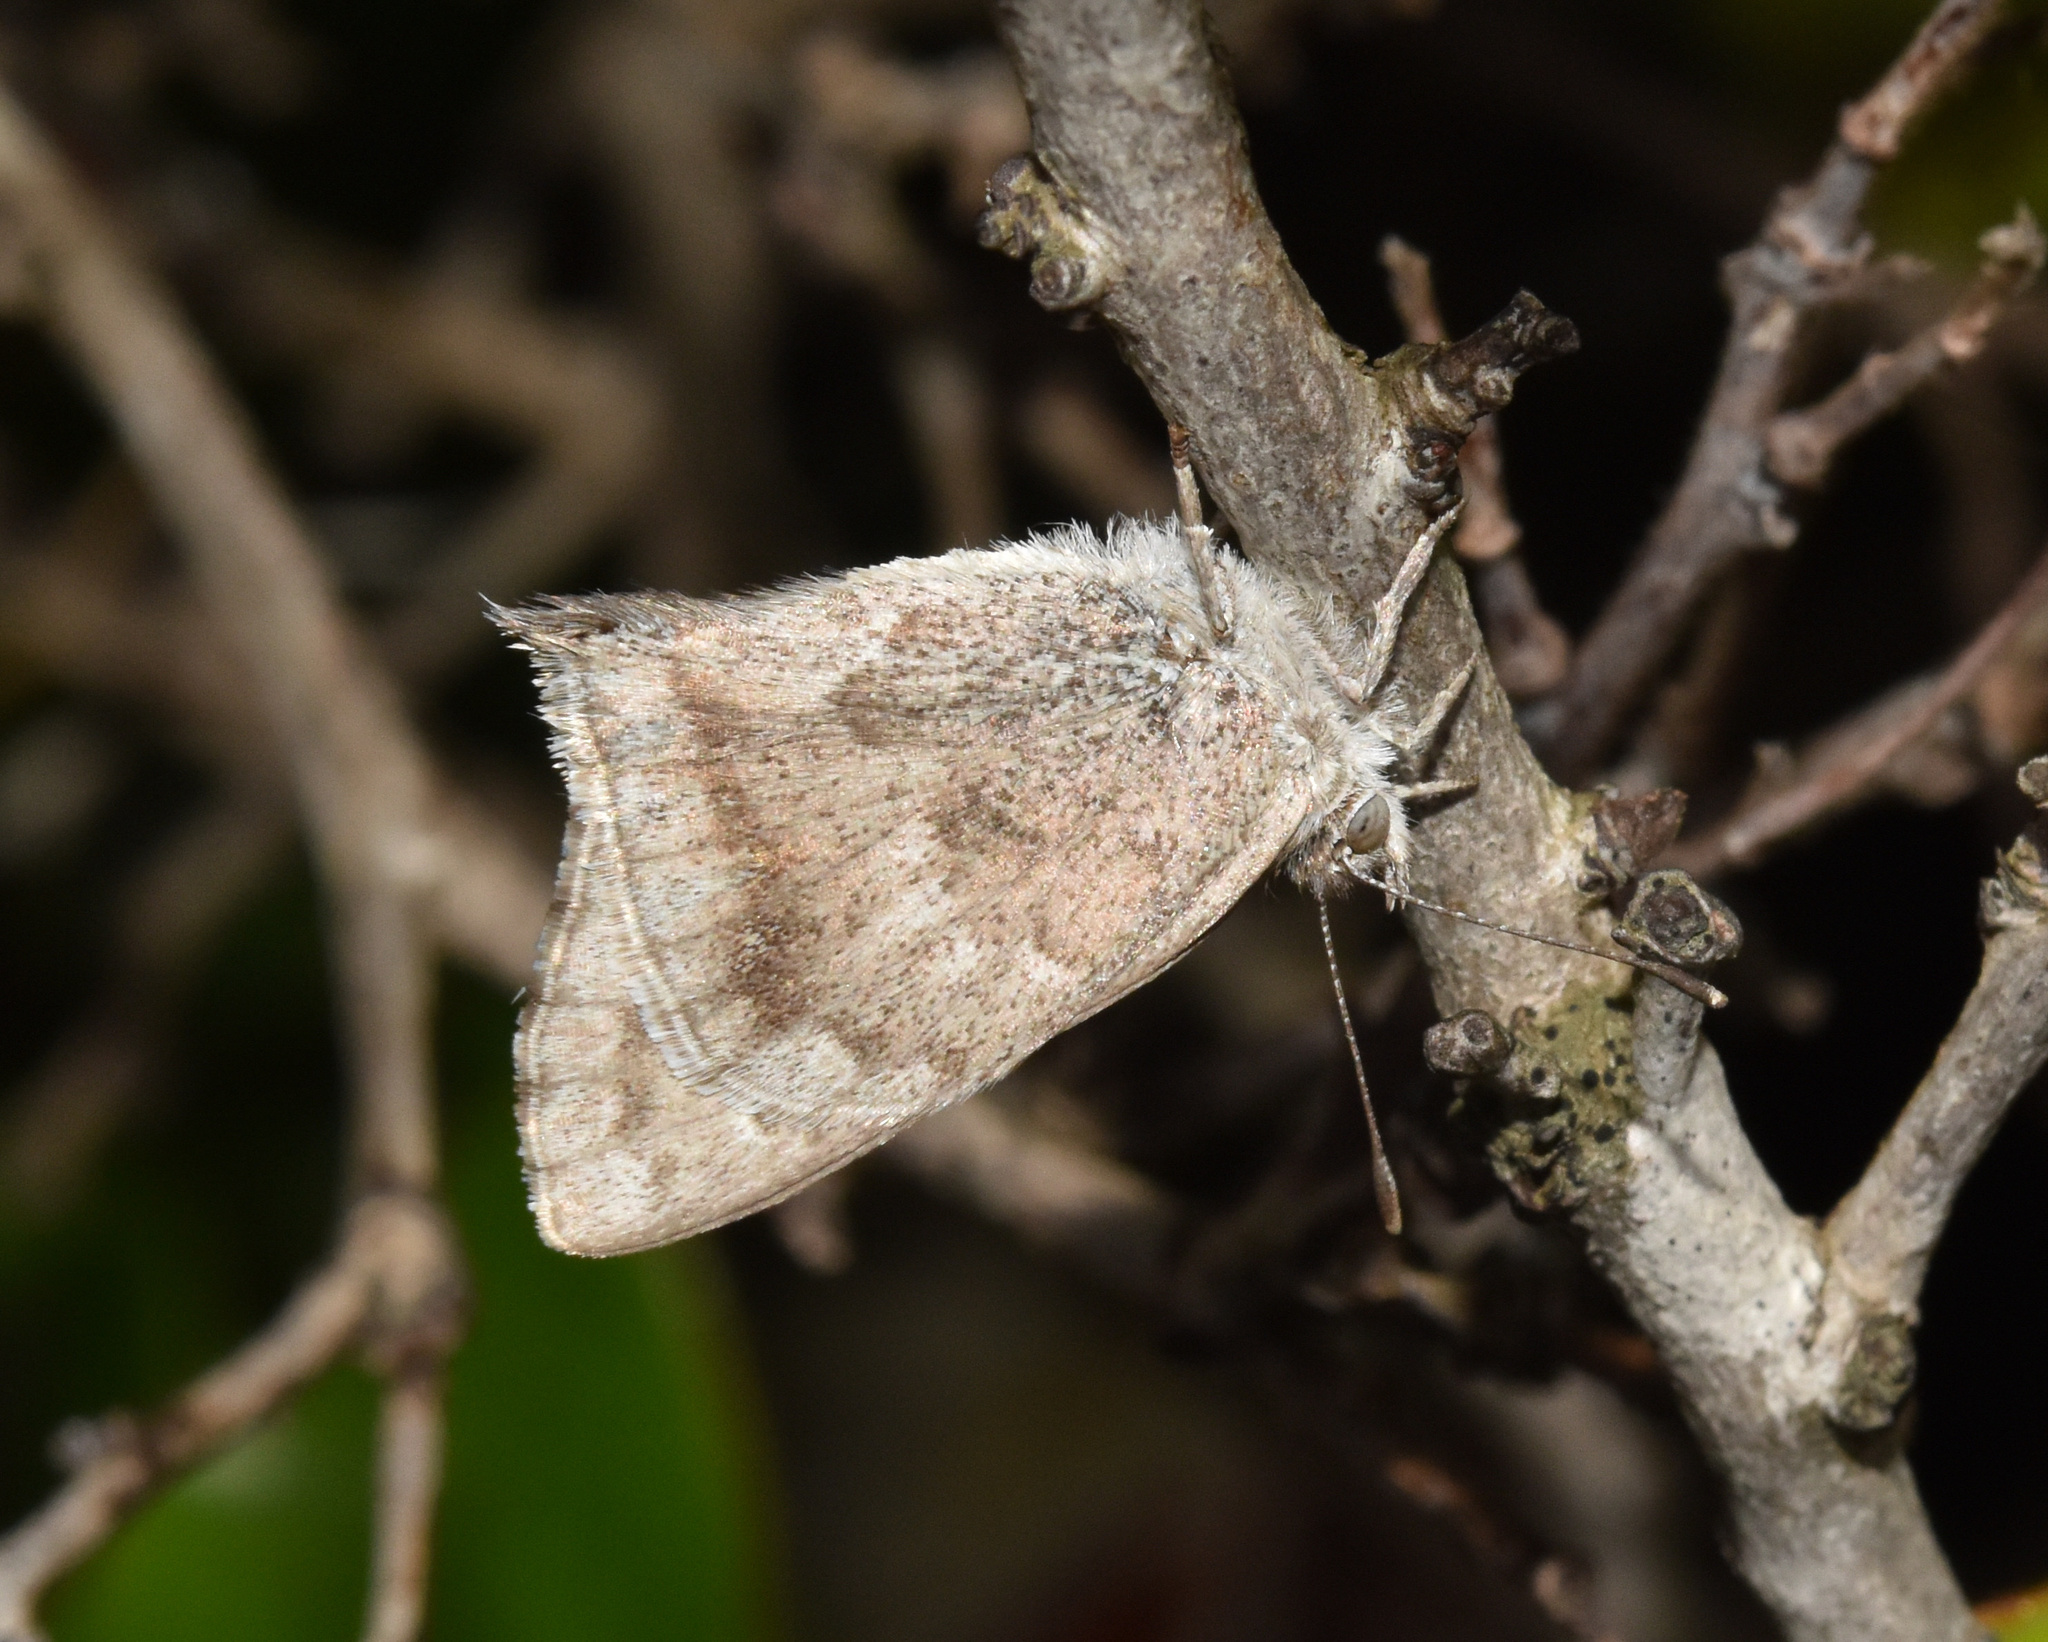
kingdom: Animalia
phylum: Arthropoda
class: Insecta
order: Lepidoptera
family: Lycaenidae
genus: Leptomyrina
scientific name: Leptomyrina gorgias
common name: Common black-eye
